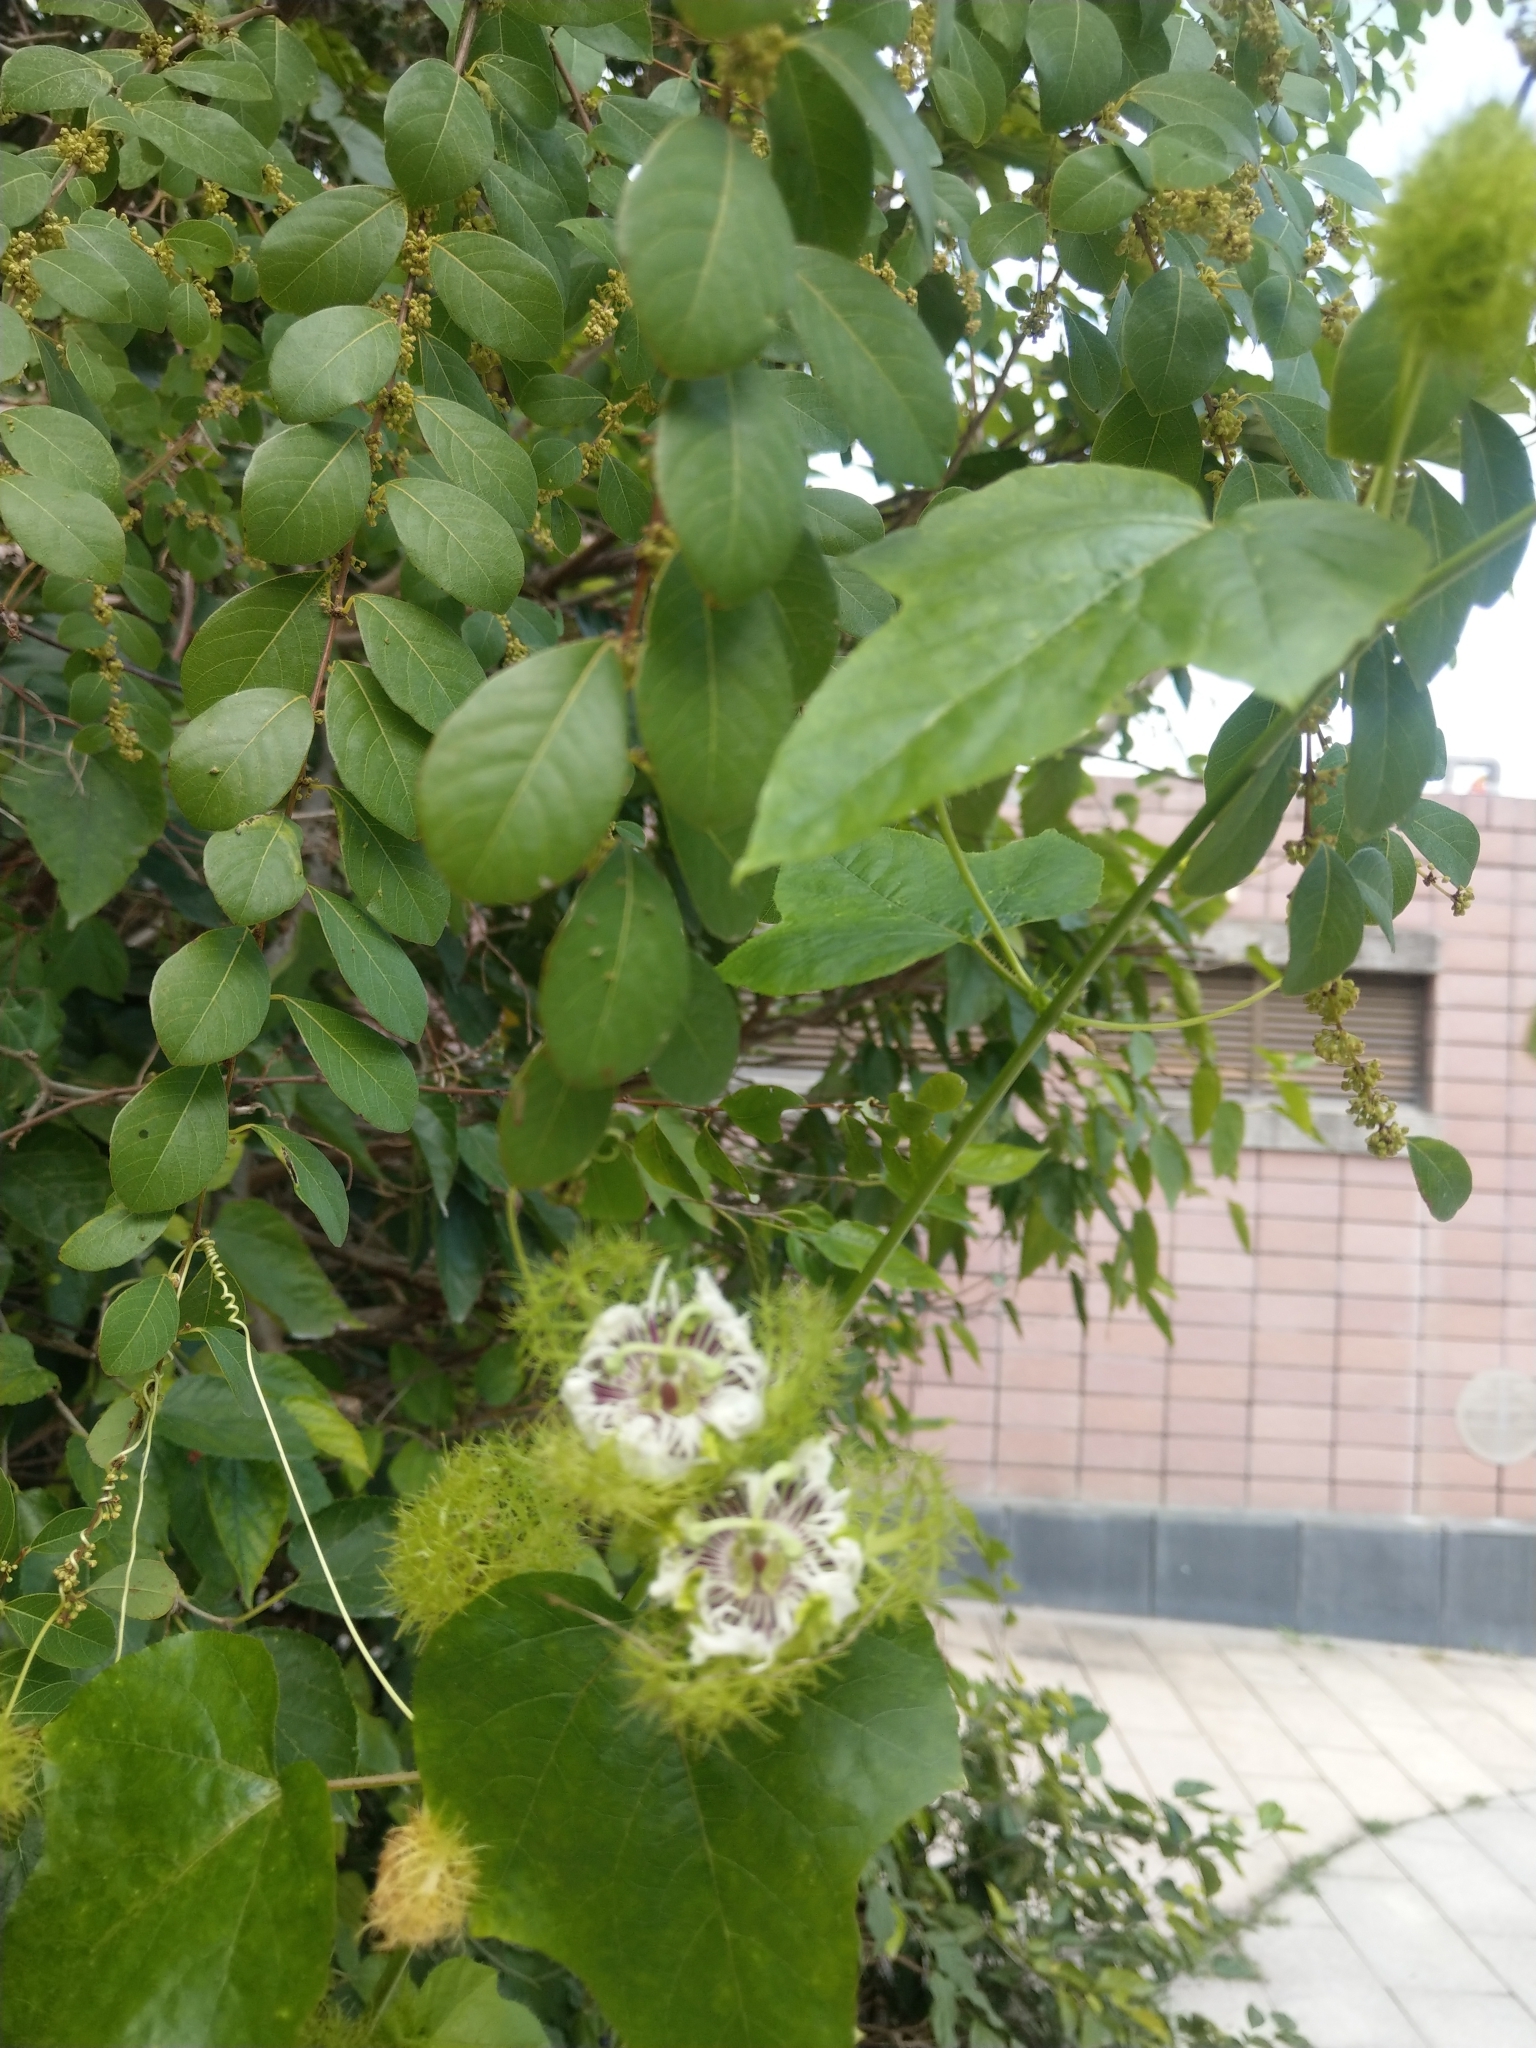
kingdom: Plantae
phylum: Tracheophyta
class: Magnoliopsida
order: Malpighiales
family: Passifloraceae
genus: Passiflora
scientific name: Passiflora vesicaria
